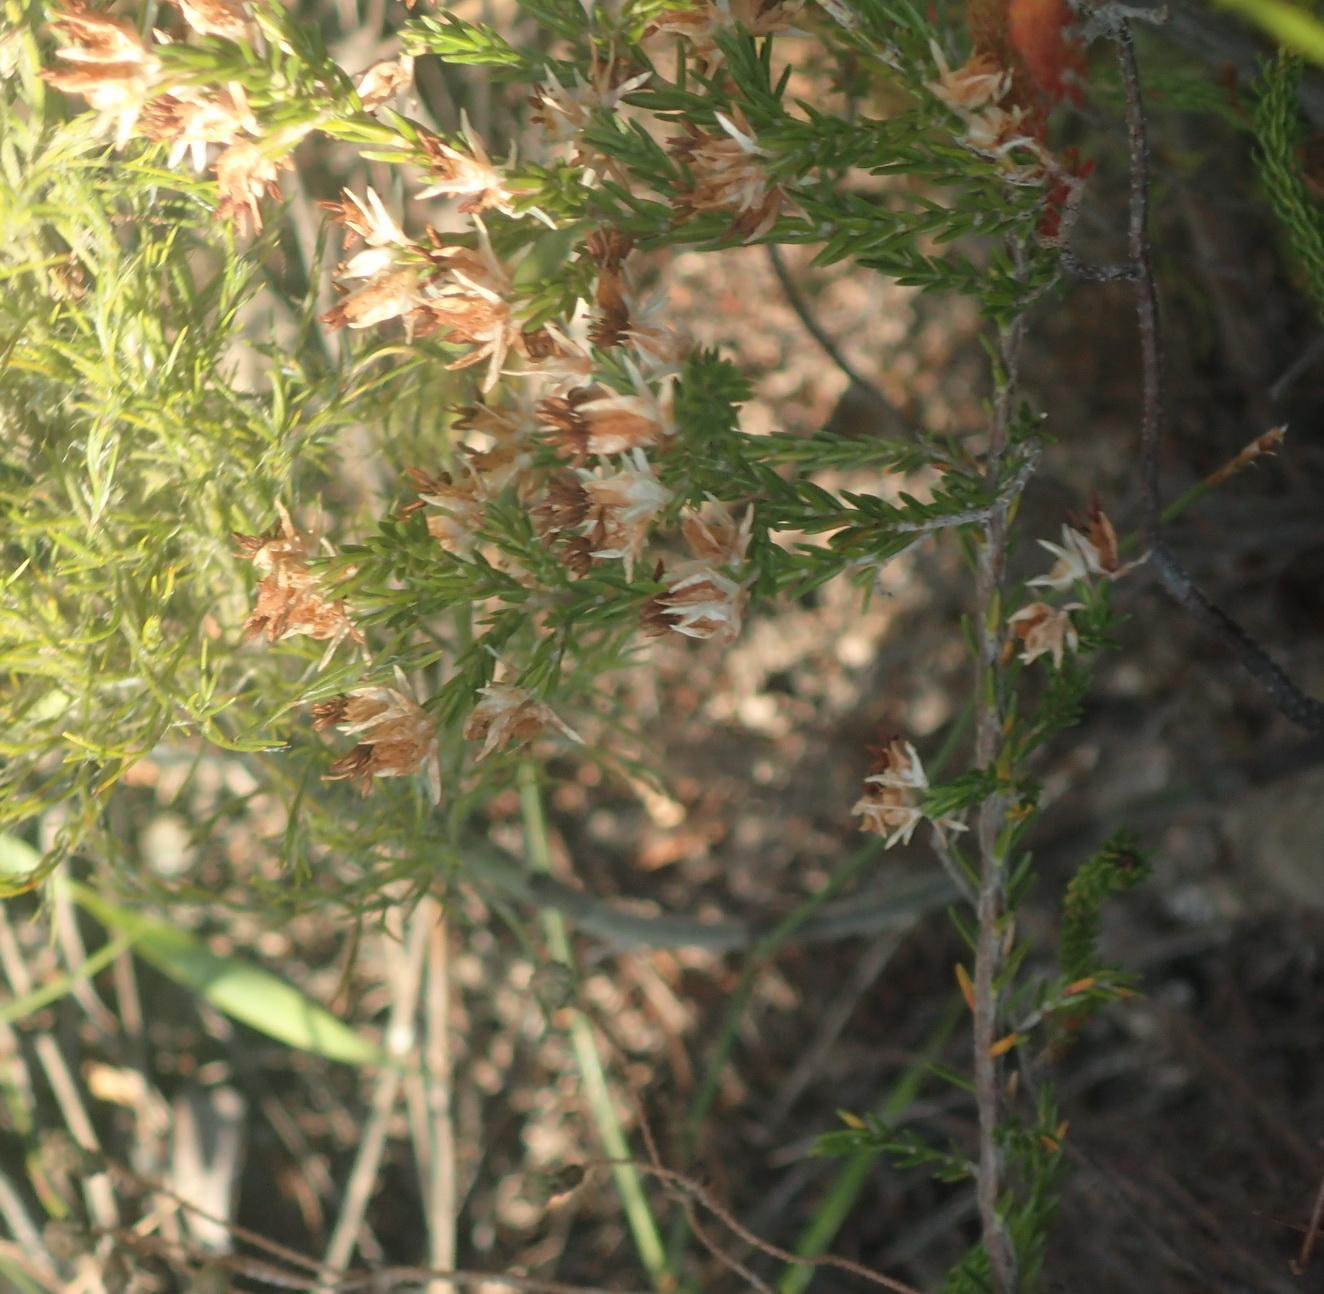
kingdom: Plantae
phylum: Tracheophyta
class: Magnoliopsida
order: Ericales
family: Ericaceae
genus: Erica
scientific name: Erica triceps
